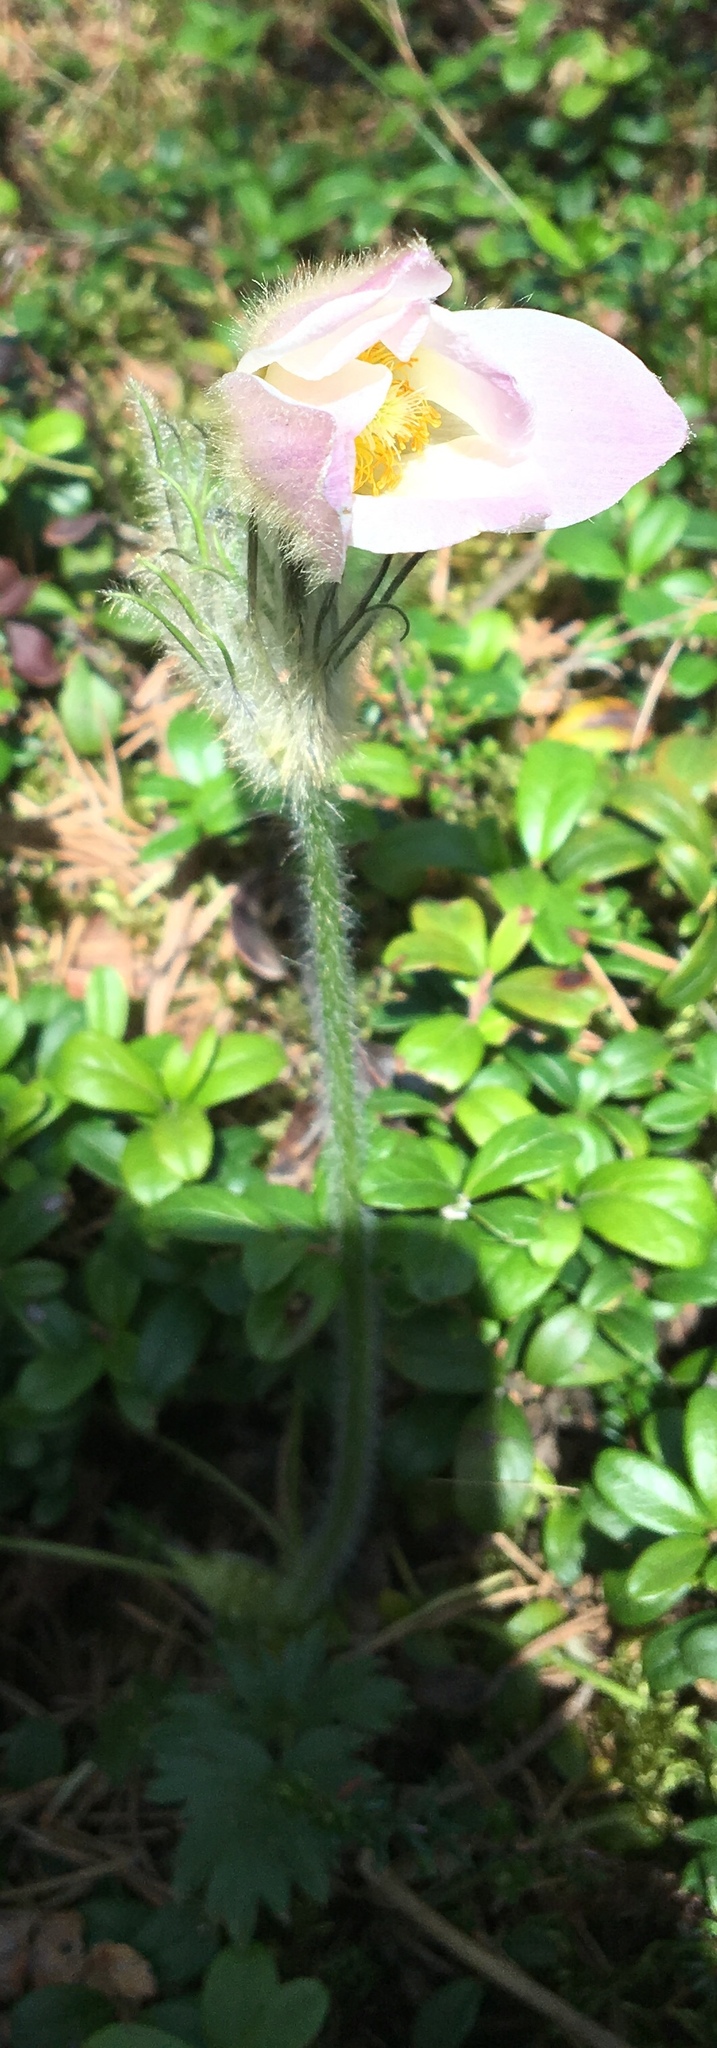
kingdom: Plantae
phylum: Tracheophyta
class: Magnoliopsida
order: Ranunculales
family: Ranunculaceae
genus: Pulsatilla
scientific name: Pulsatilla vernalis
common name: Spring pasque flower
